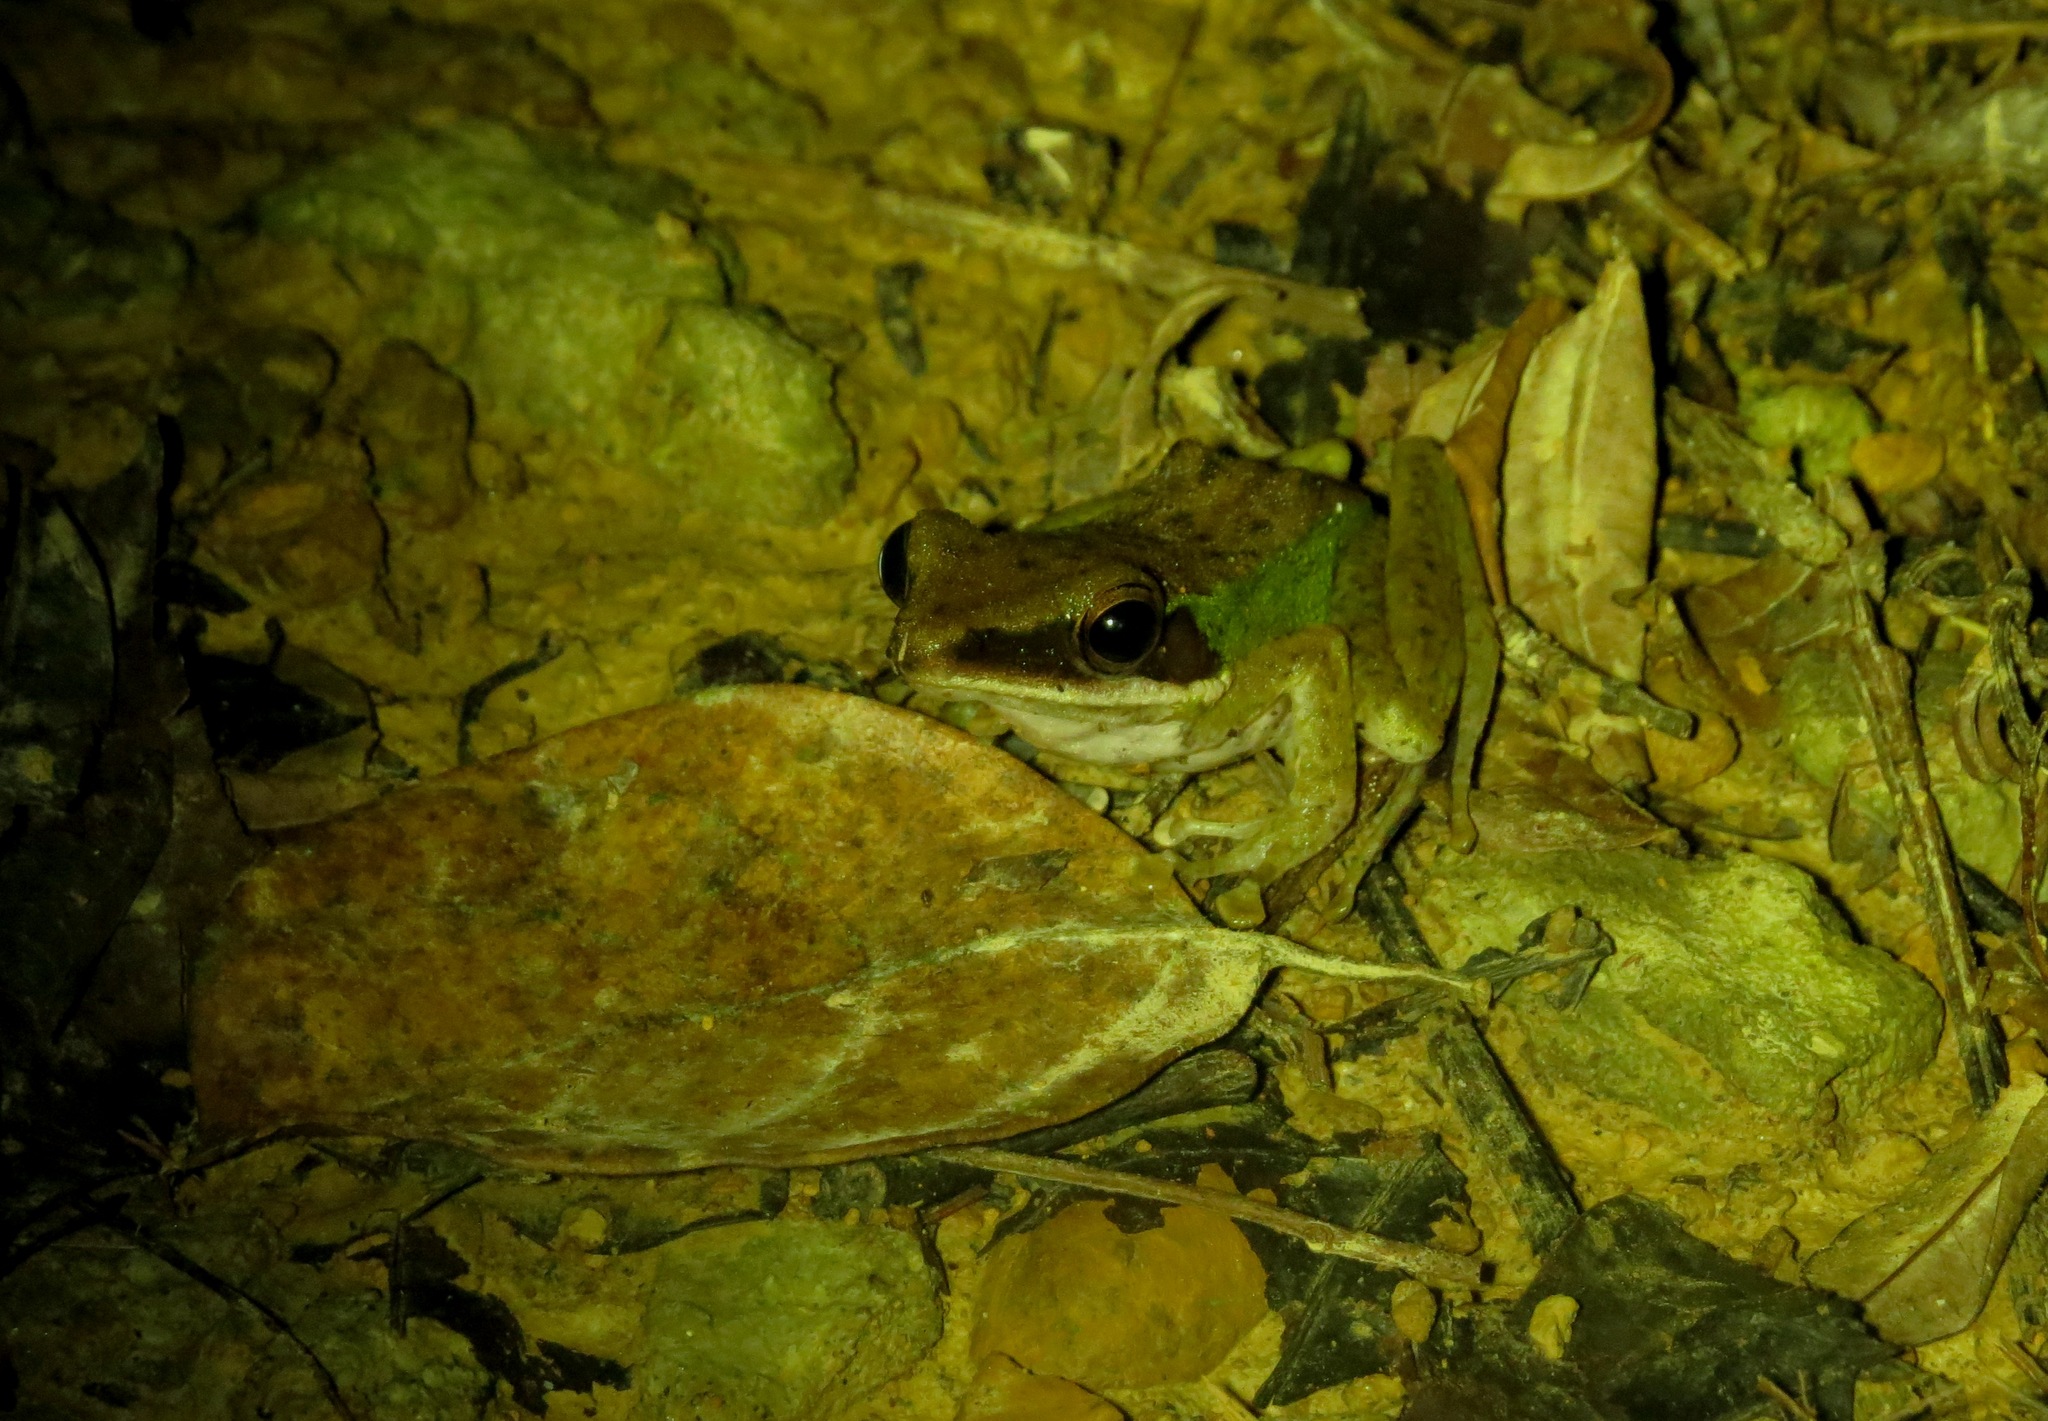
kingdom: Animalia
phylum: Chordata
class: Amphibia
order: Anura
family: Ranidae
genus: Chalcorana
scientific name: Chalcorana megalonesa
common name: Large white-lipped frog
